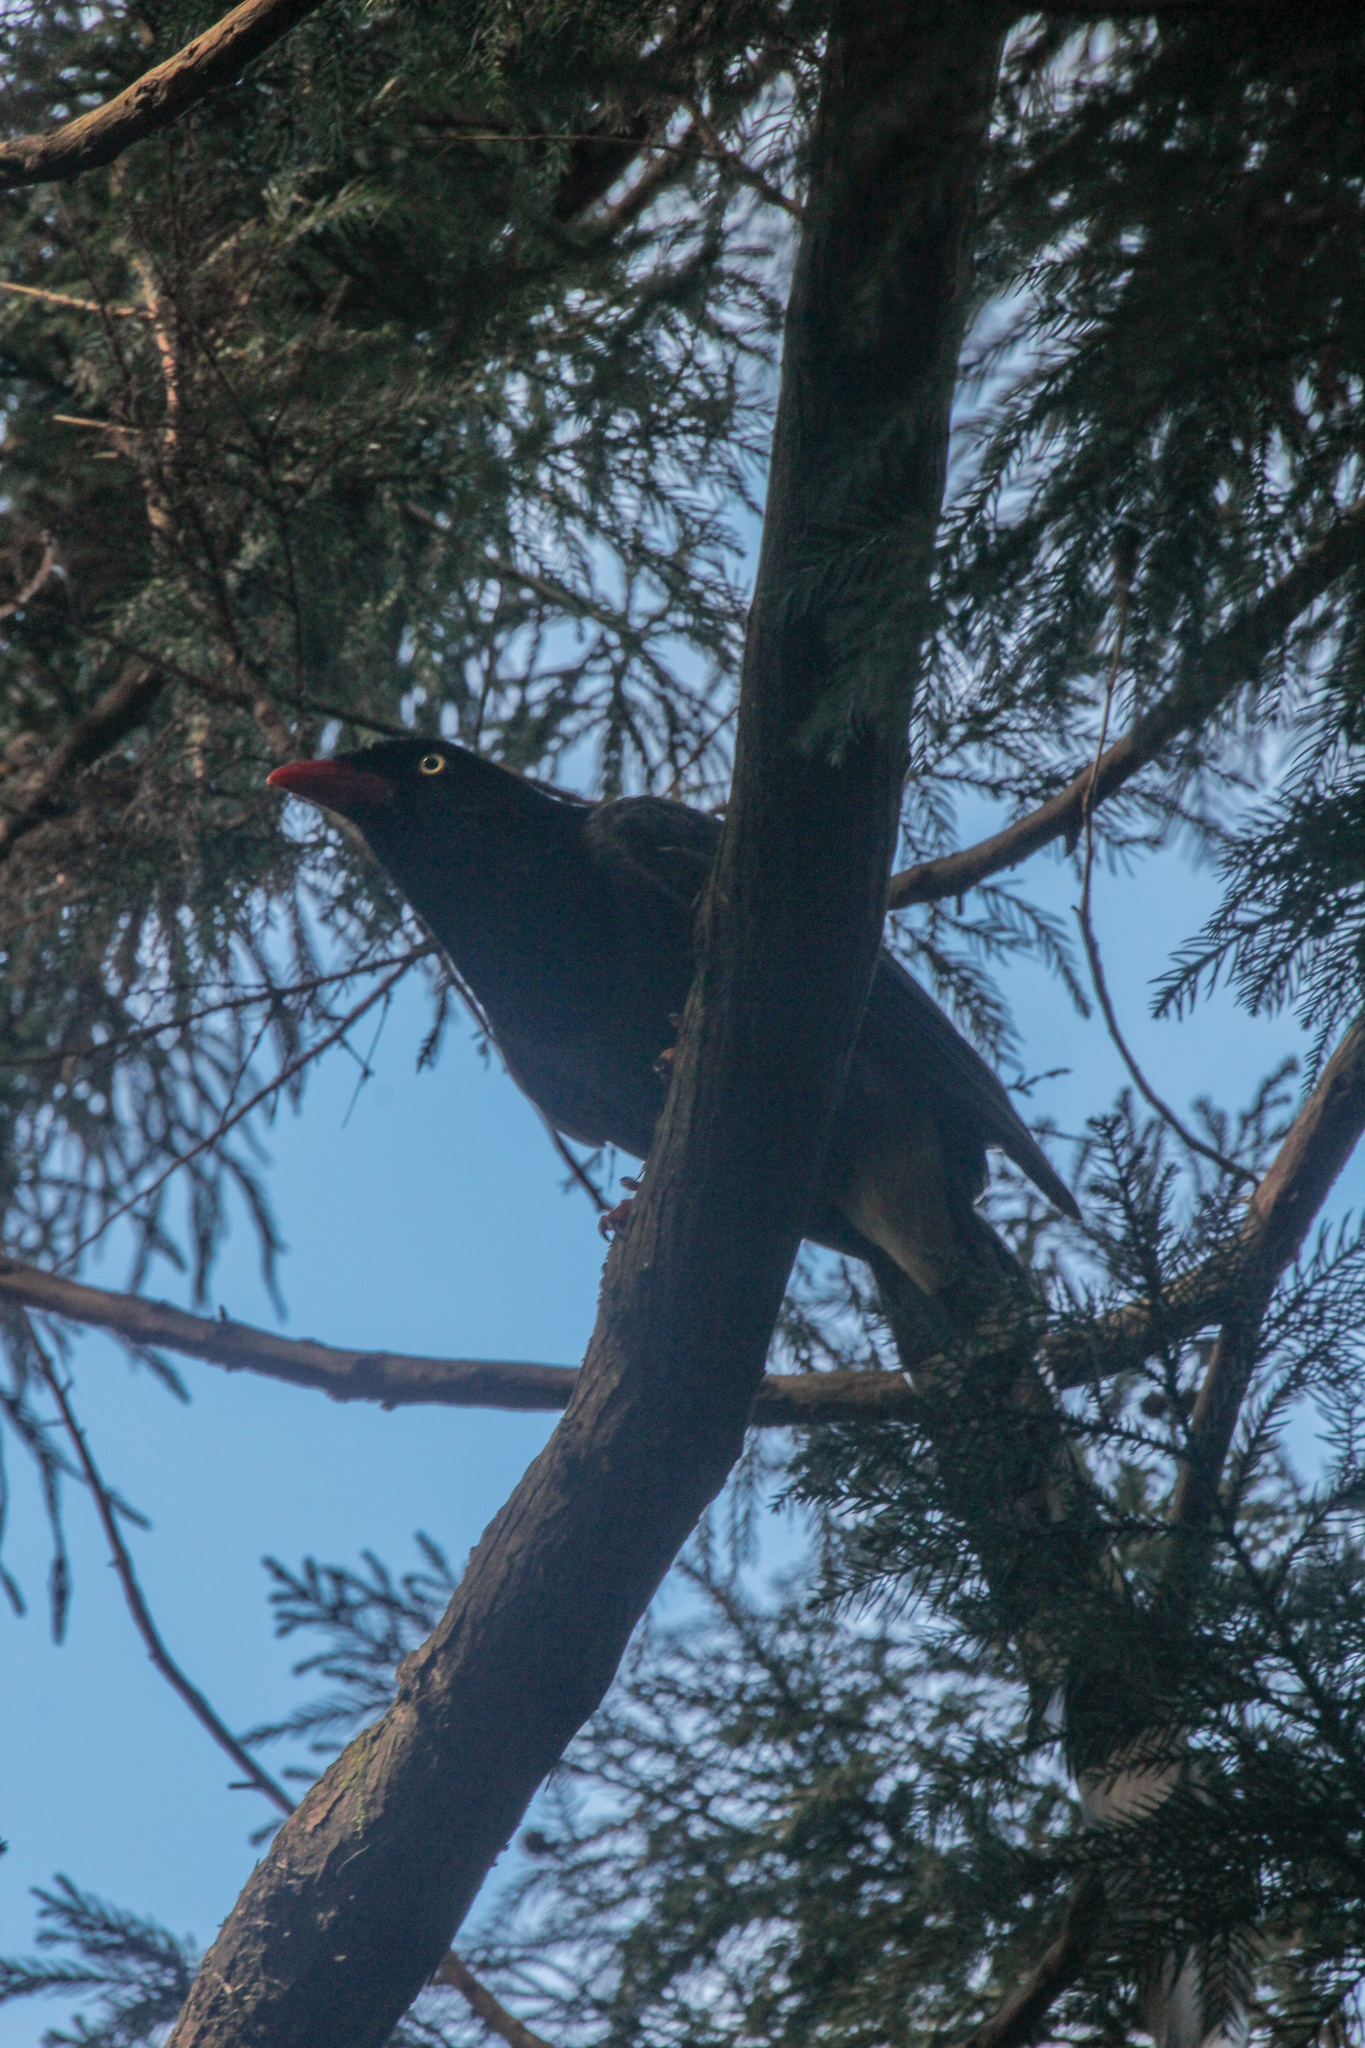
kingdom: Animalia
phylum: Chordata
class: Aves
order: Passeriformes
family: Corvidae
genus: Urocissa
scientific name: Urocissa caerulea
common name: Taiwan blue magpie
